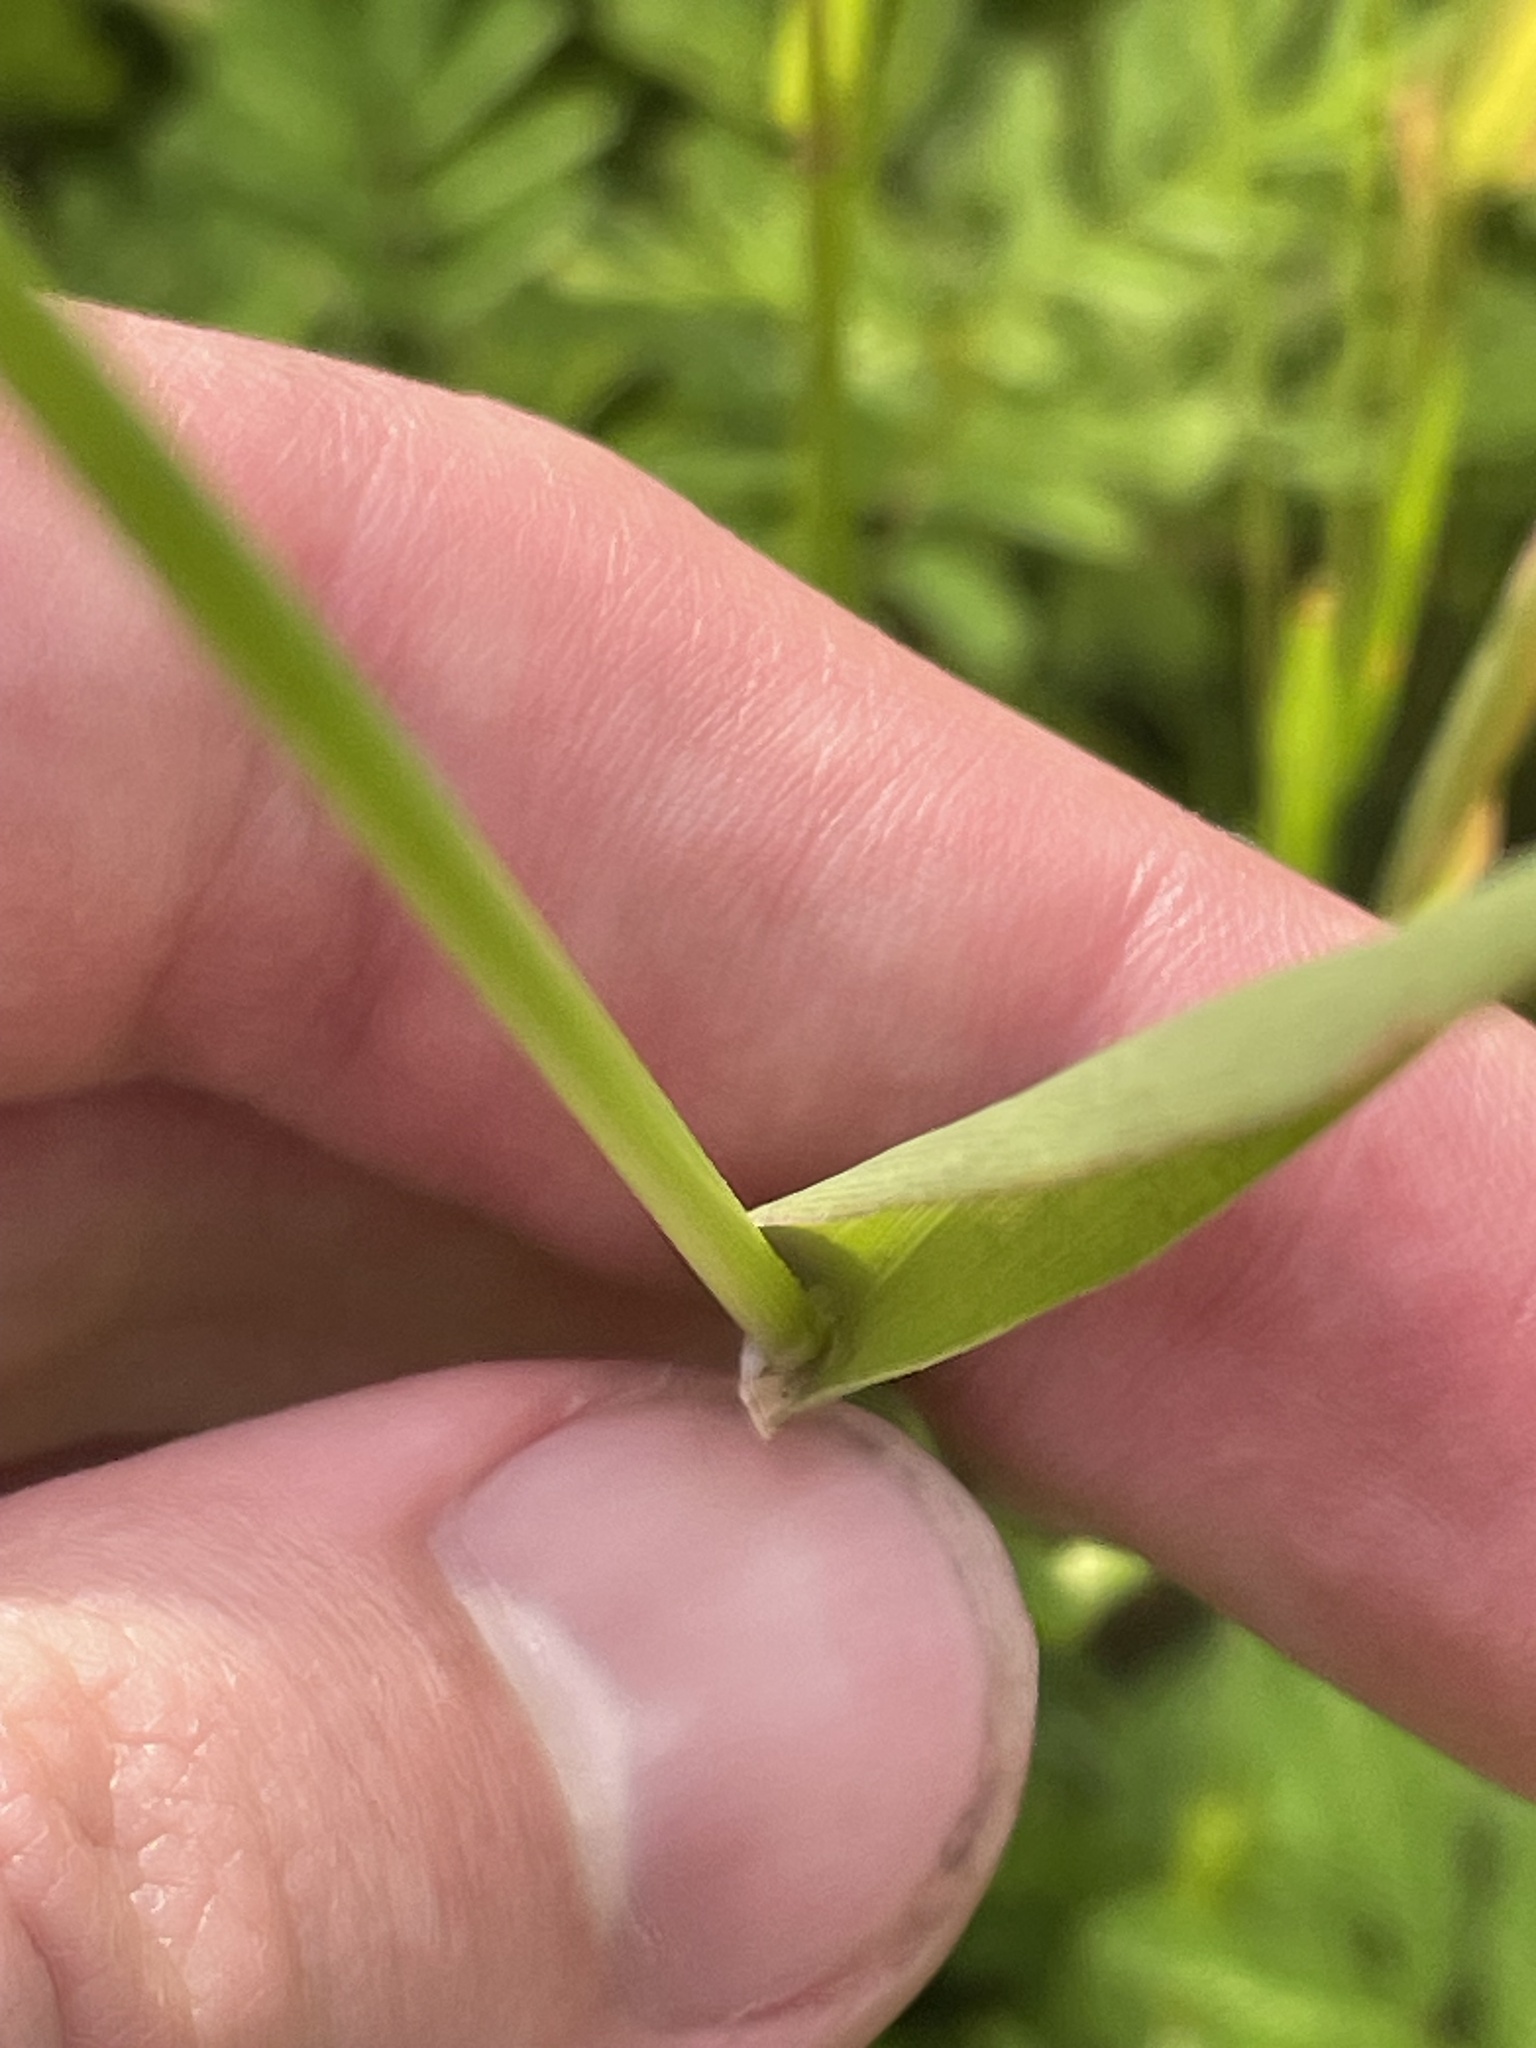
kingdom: Plantae
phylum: Tracheophyta
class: Liliopsida
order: Poales
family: Poaceae
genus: Phalaris
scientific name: Phalaris caroliniana
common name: May grass
